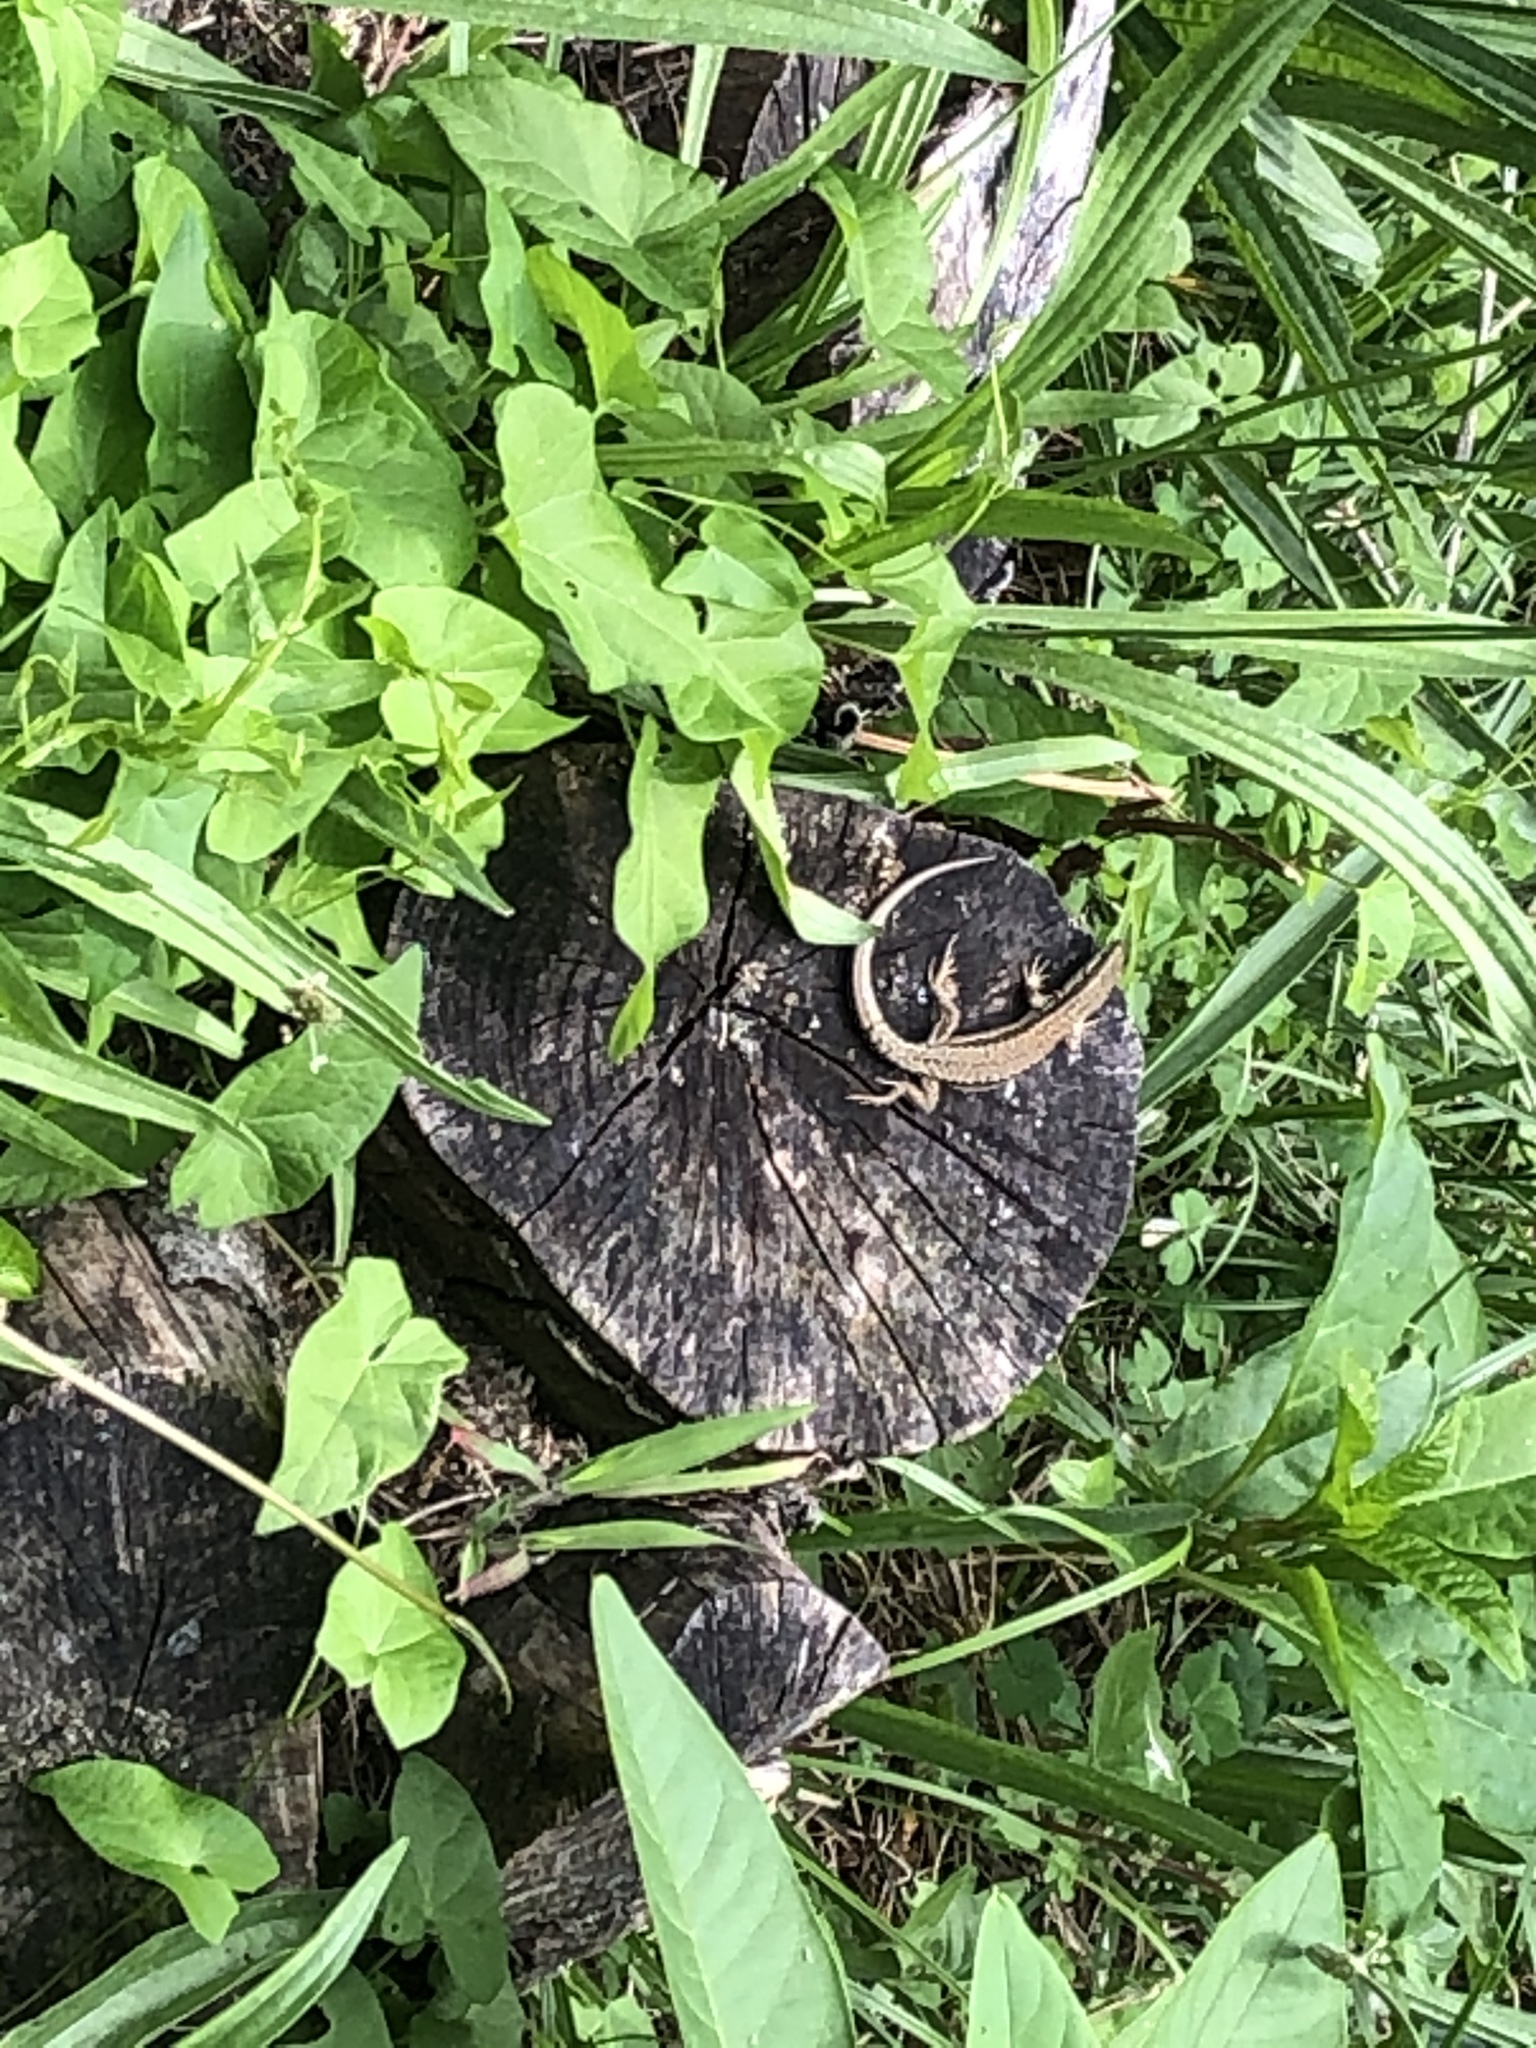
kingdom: Animalia
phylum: Chordata
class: Squamata
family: Lacertidae
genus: Podarcis
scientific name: Podarcis muralis
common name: Common wall lizard
